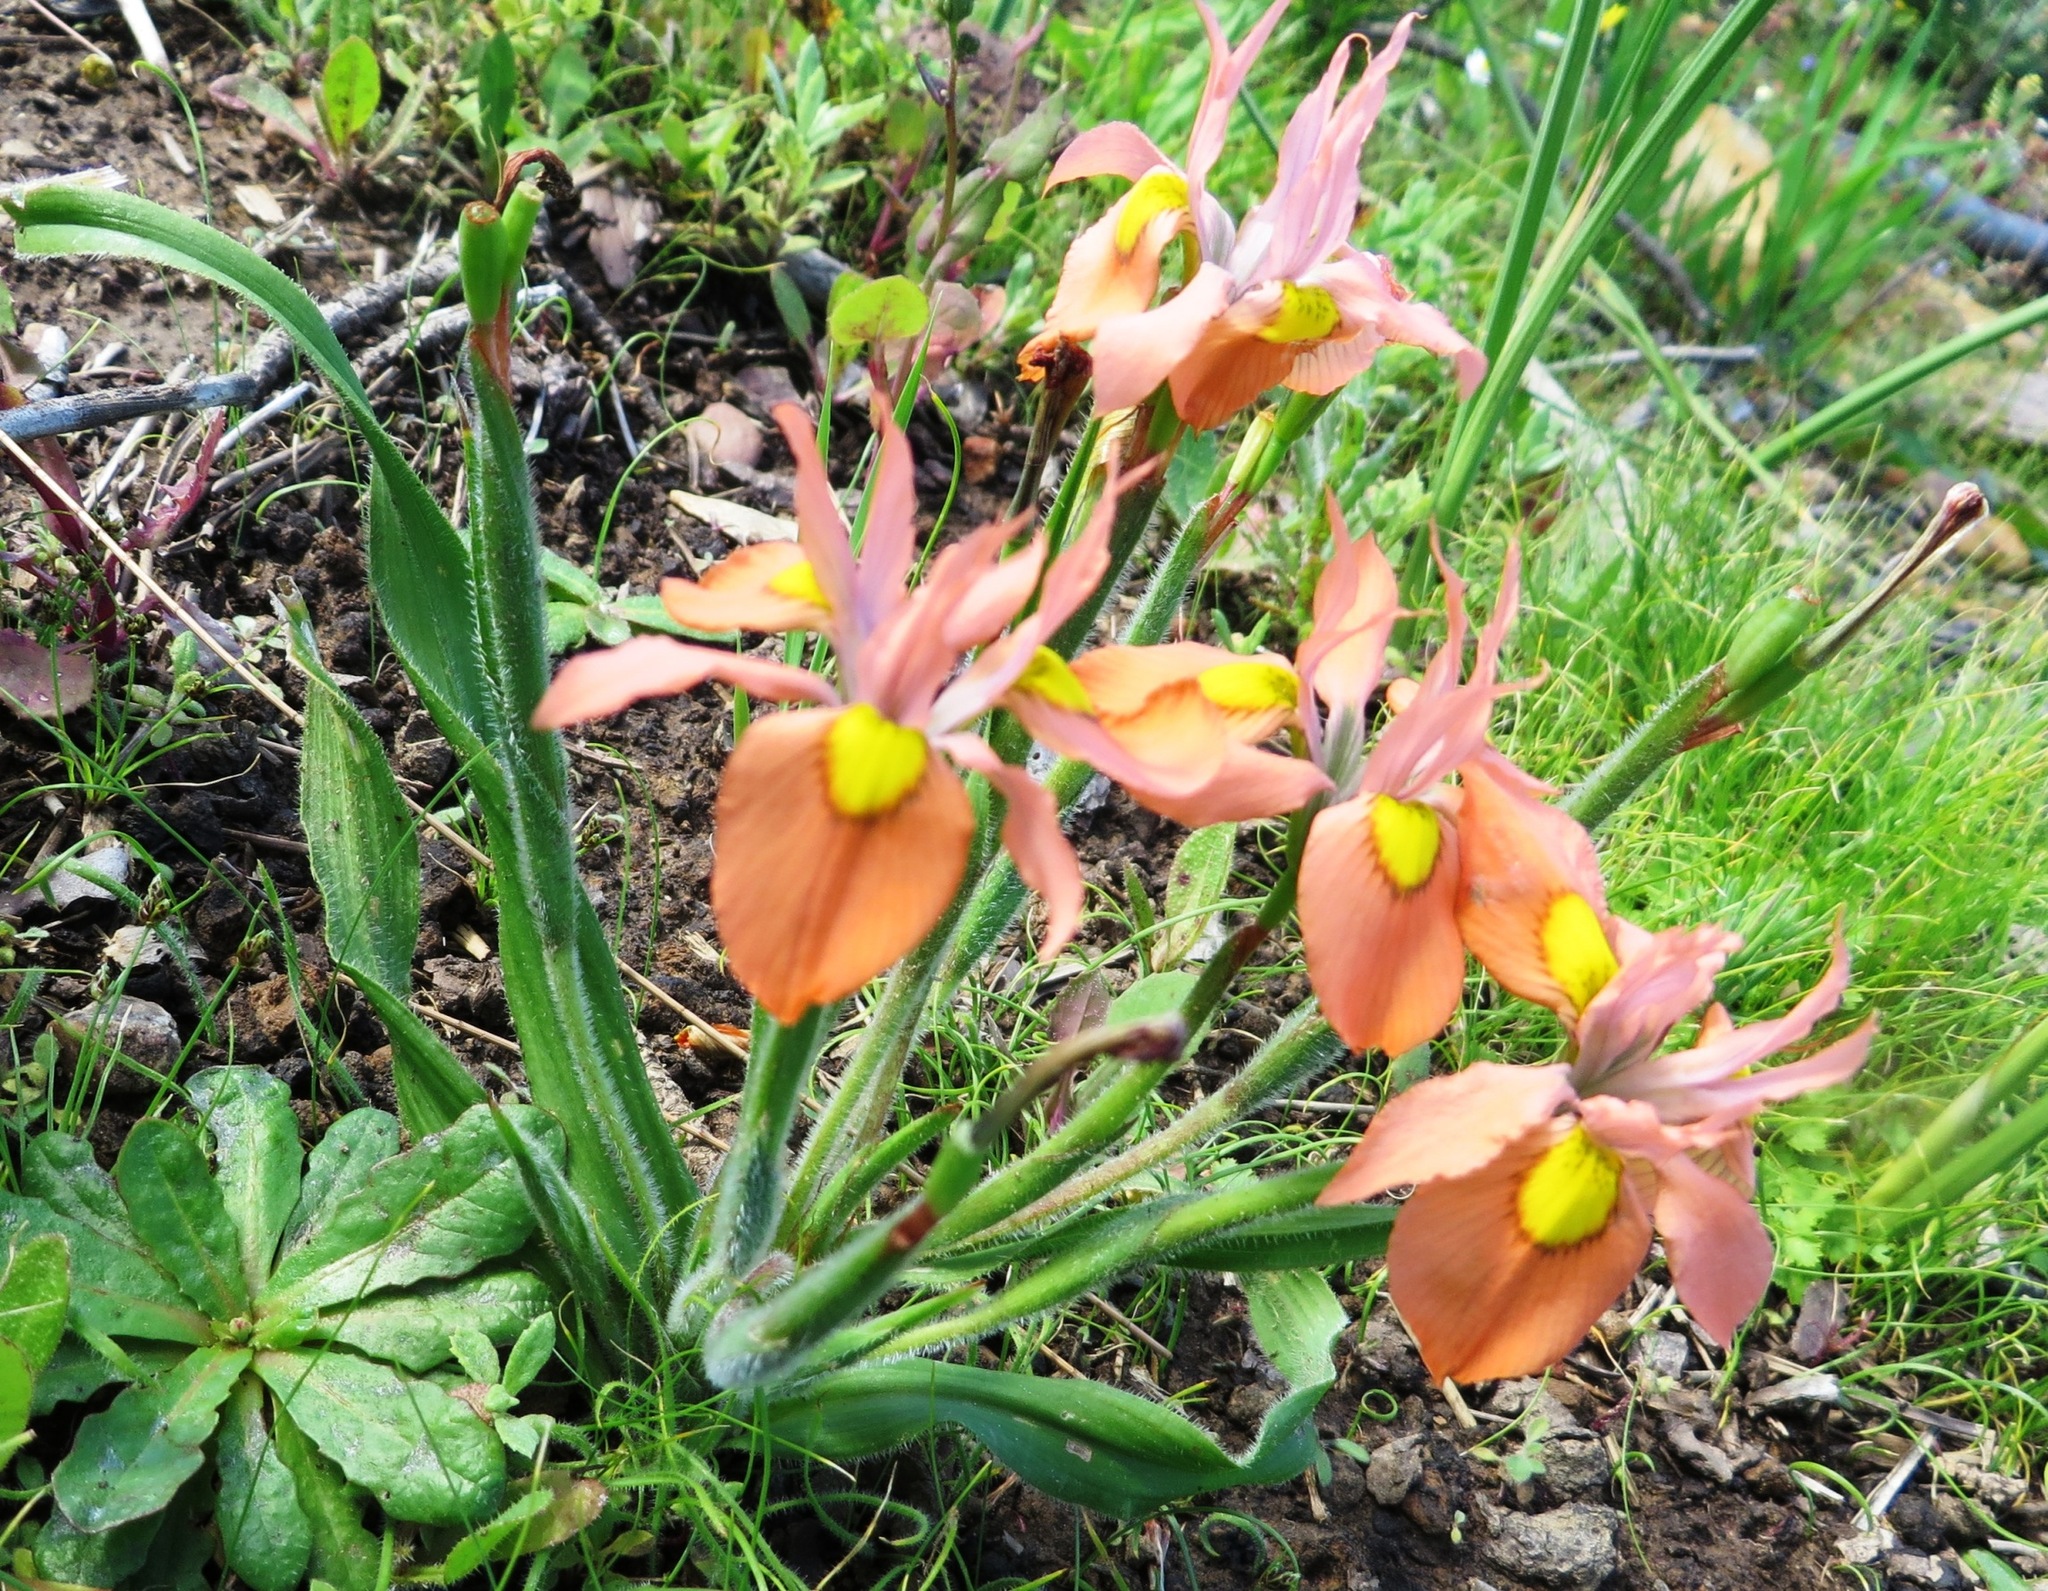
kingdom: Plantae
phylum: Tracheophyta
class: Liliopsida
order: Asparagales
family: Iridaceae
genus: Moraea
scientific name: Moraea papilionacea
